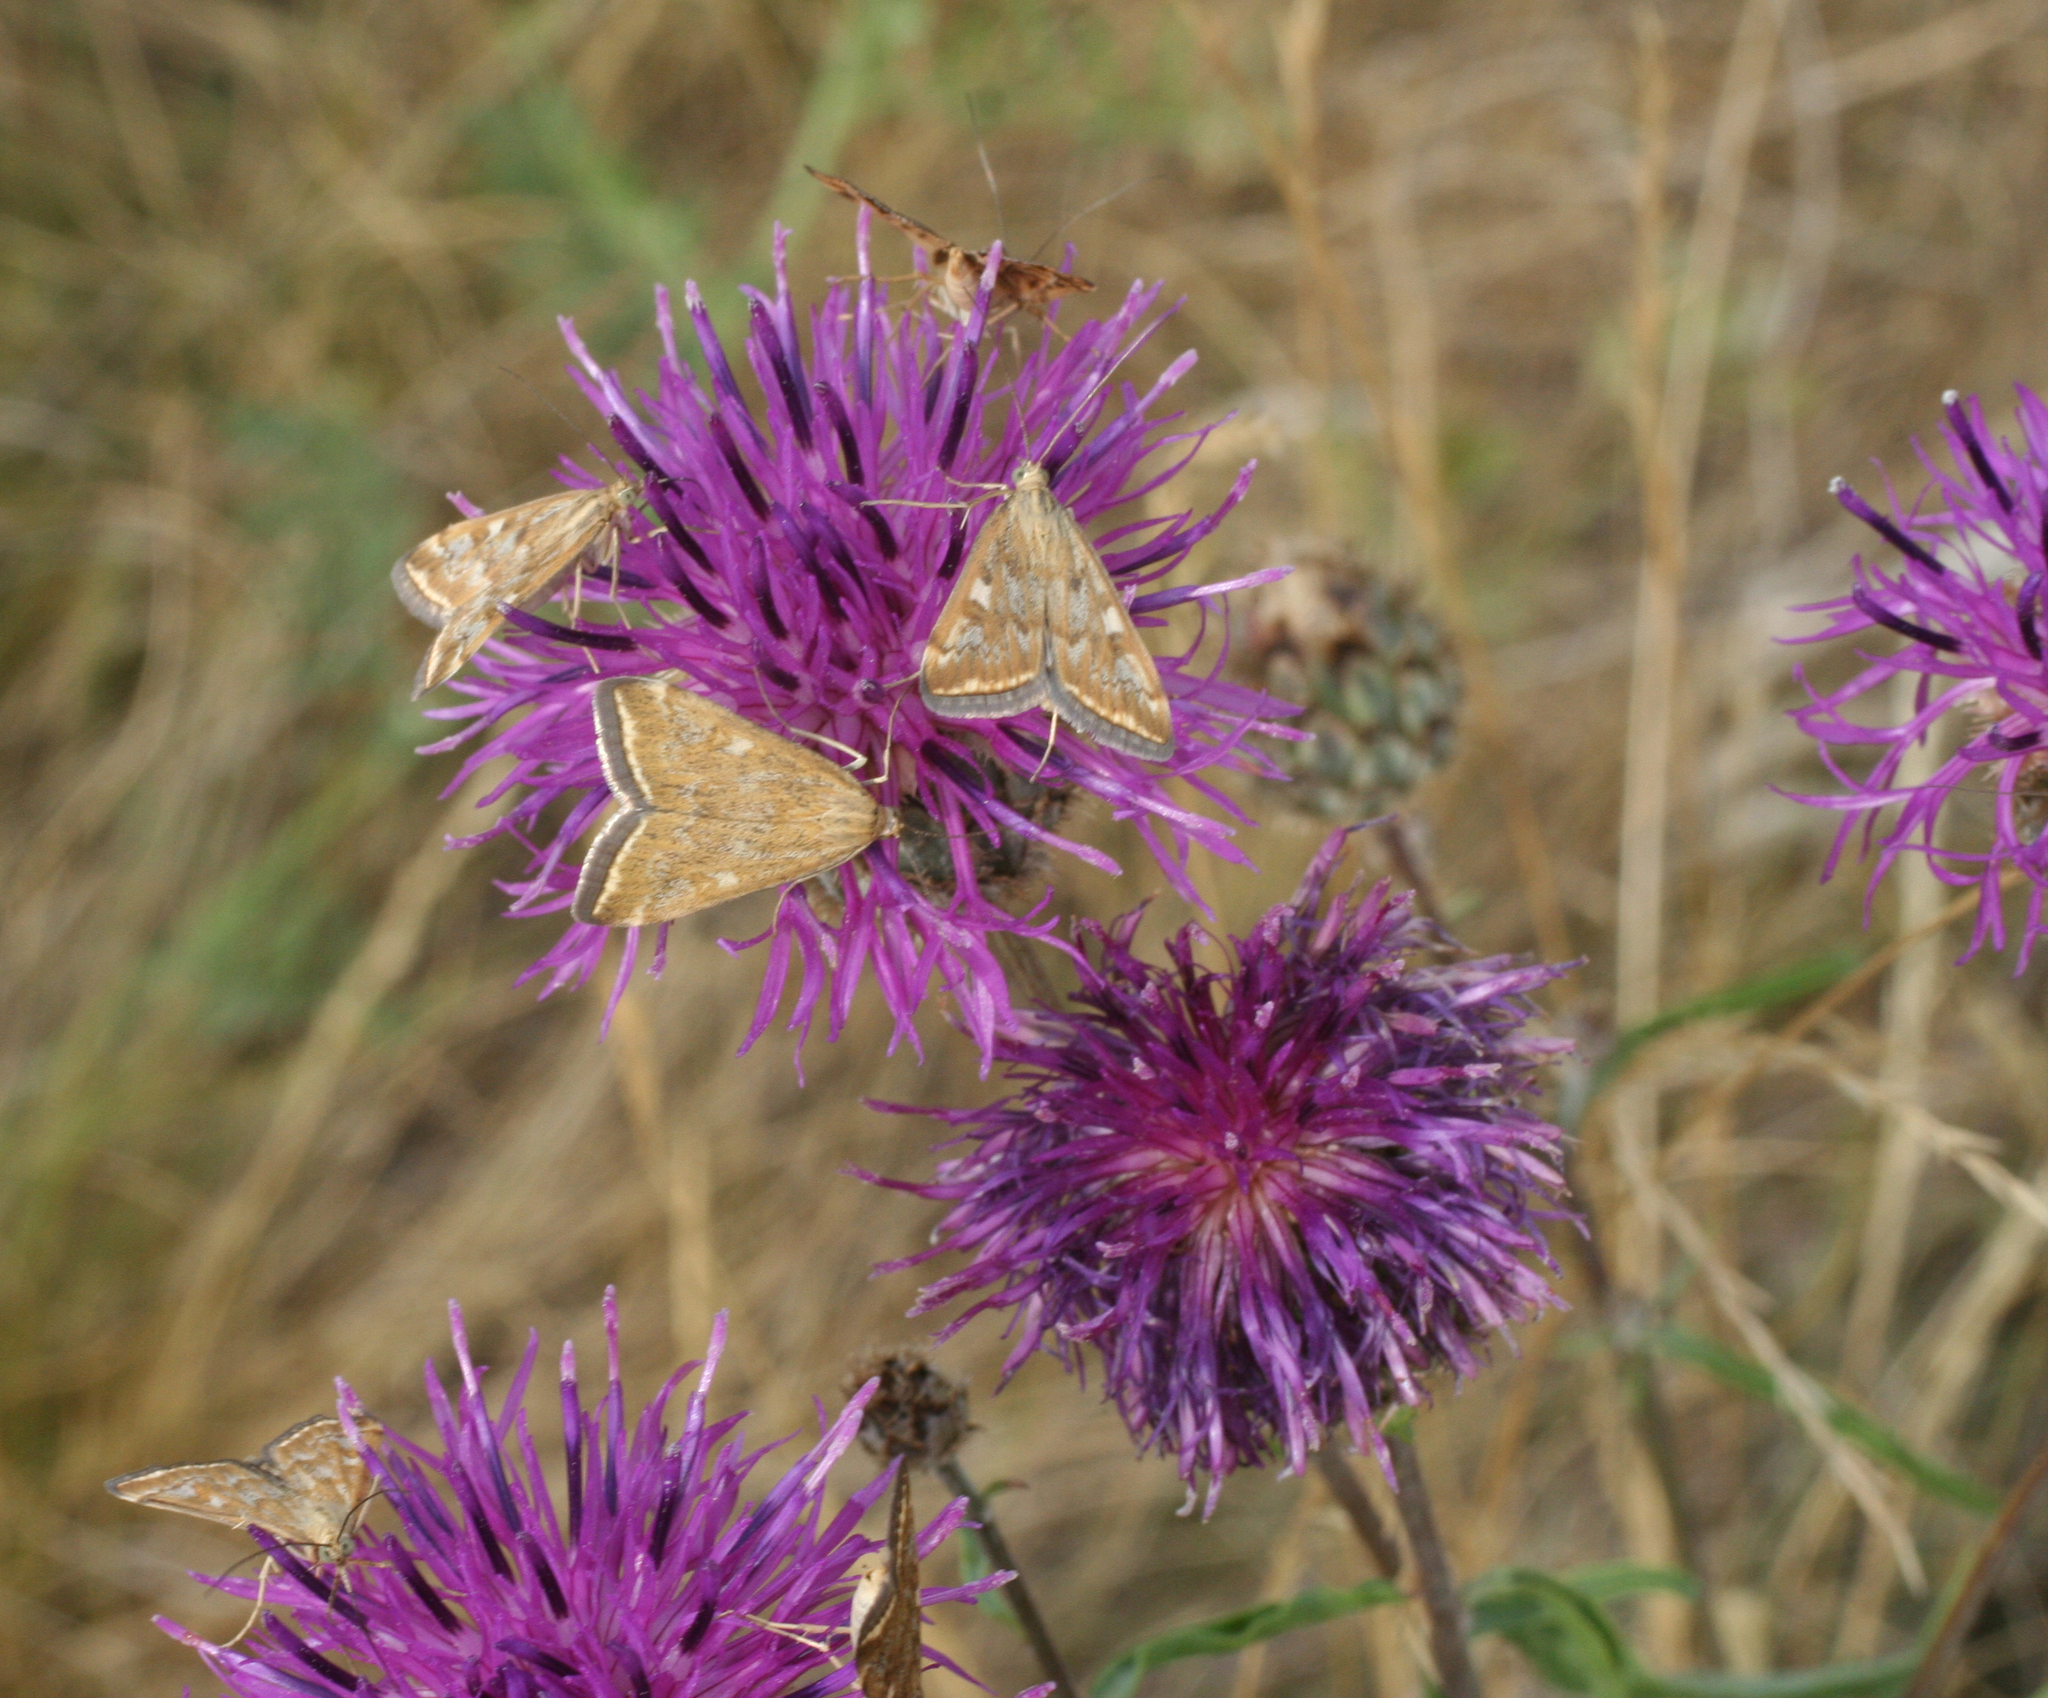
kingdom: Plantae
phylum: Tracheophyta
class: Magnoliopsida
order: Asterales
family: Asteraceae
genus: Centaurea
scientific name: Centaurea scabiosa
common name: Greater knapweed
